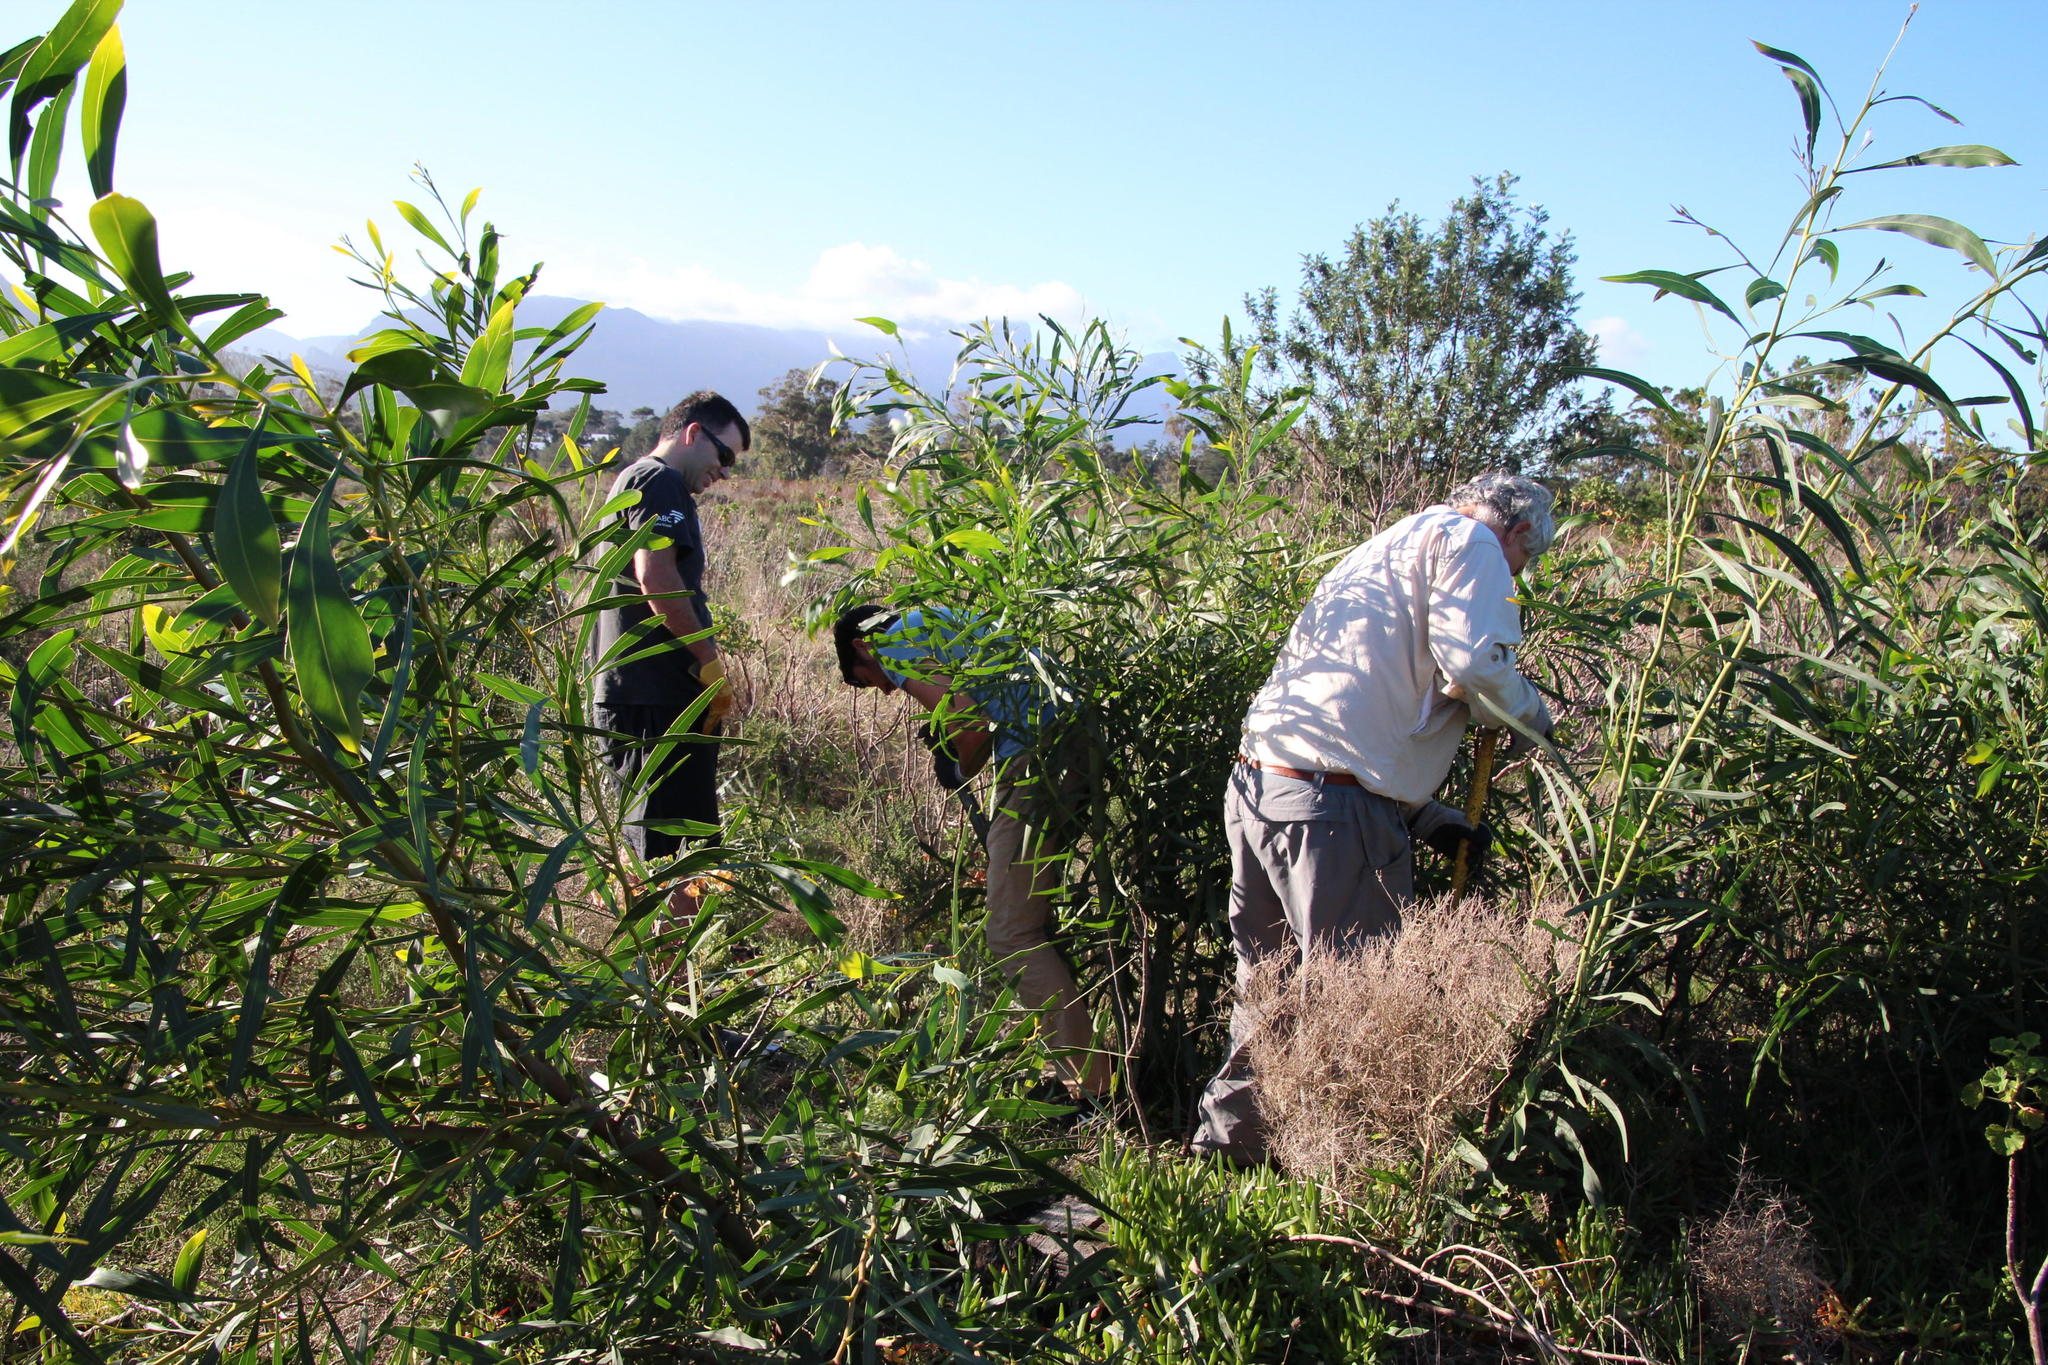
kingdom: Plantae
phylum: Tracheophyta
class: Magnoliopsida
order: Fabales
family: Fabaceae
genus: Acacia
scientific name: Acacia saligna
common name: Orange wattle
